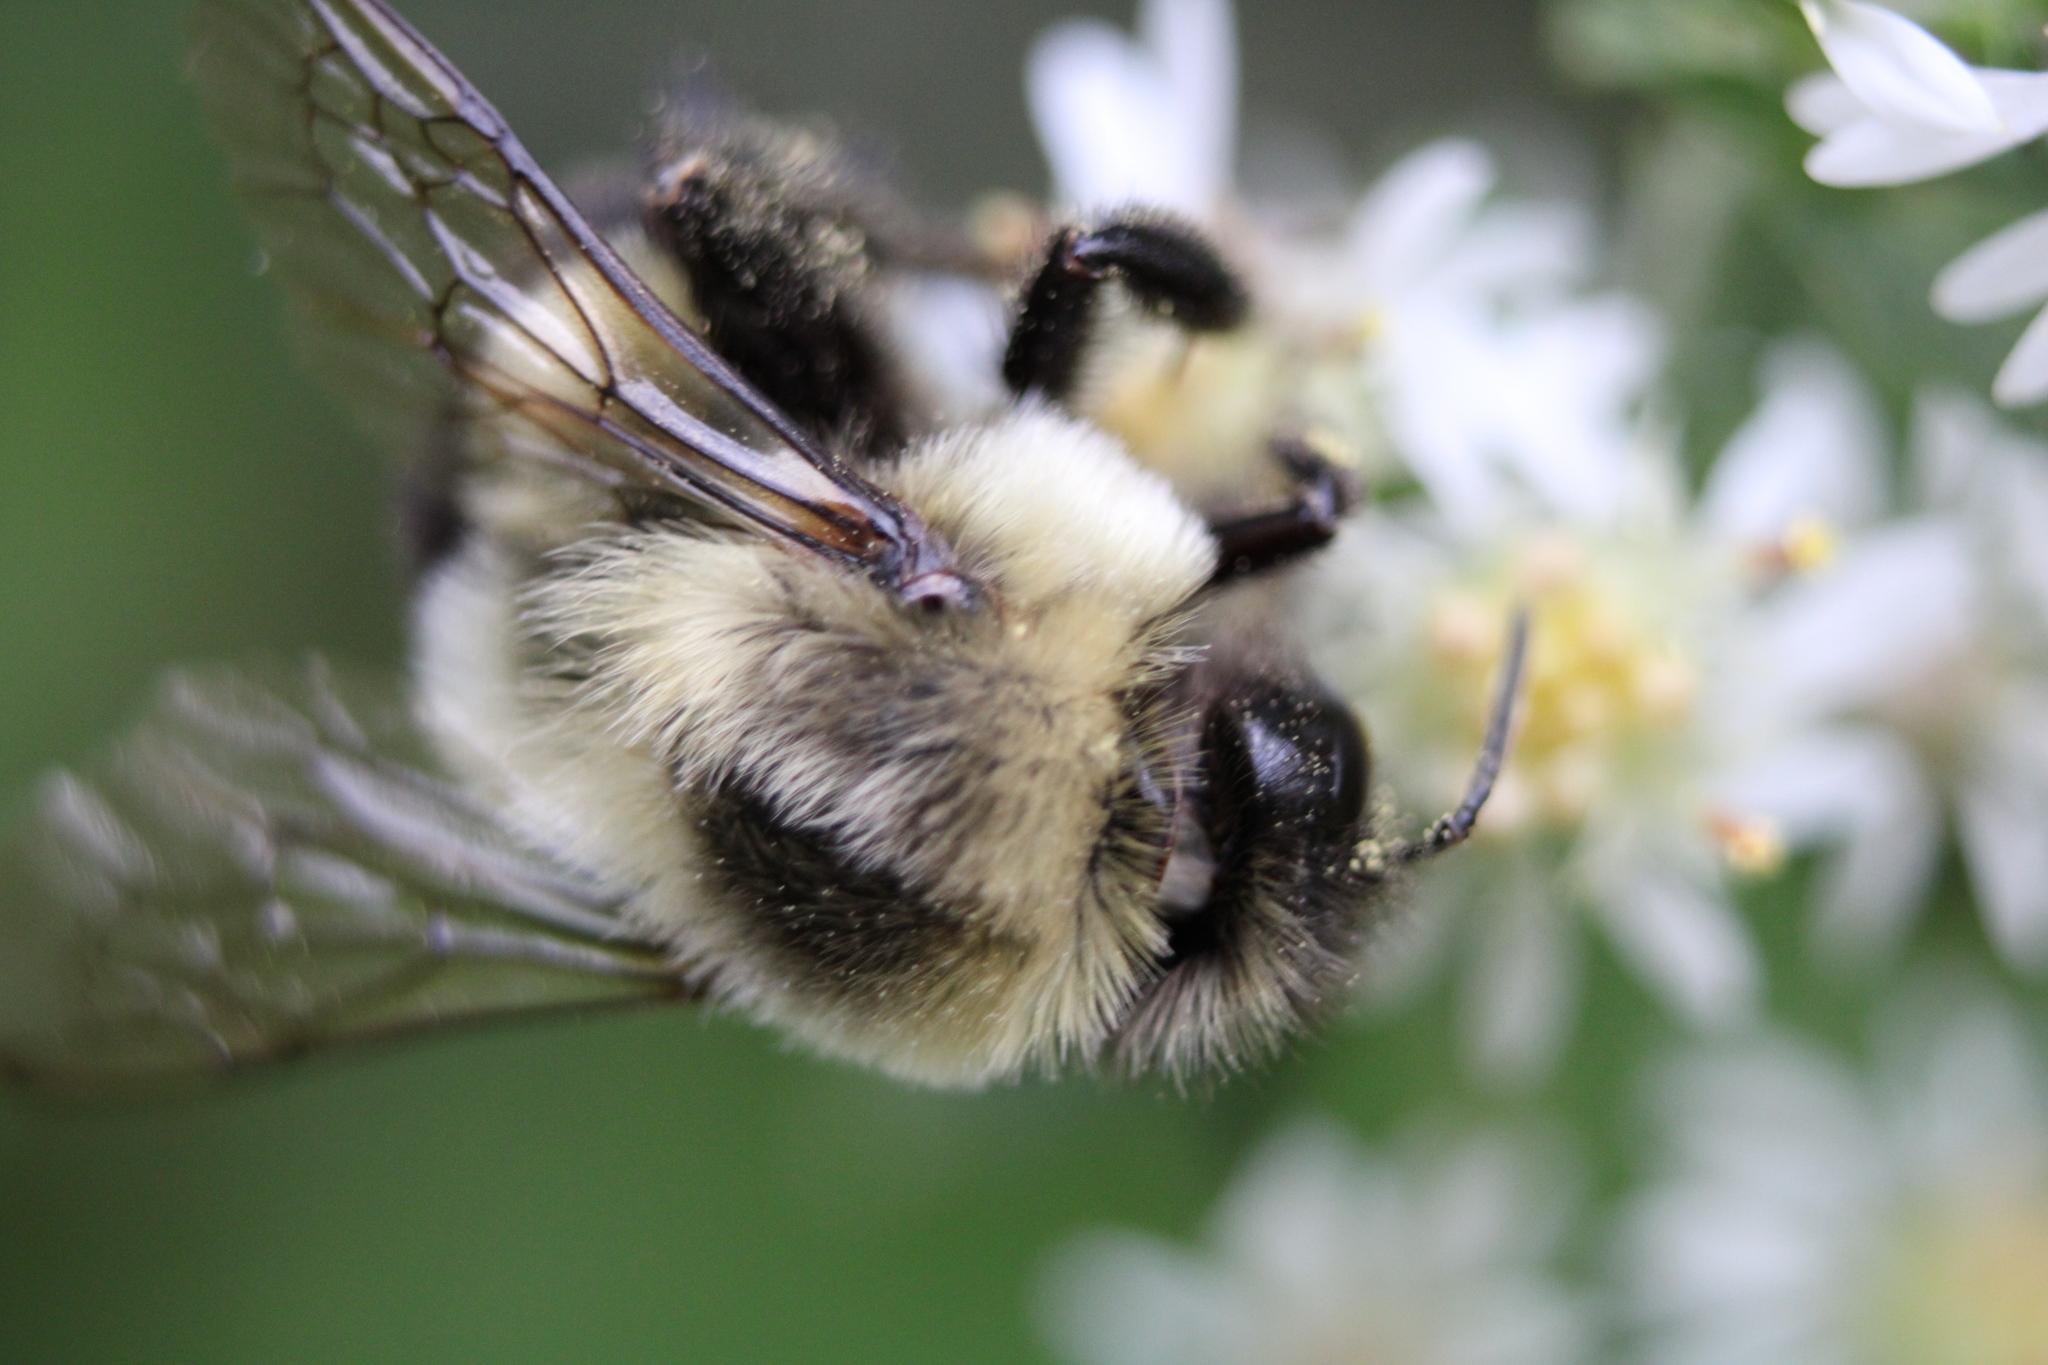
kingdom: Animalia
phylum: Arthropoda
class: Insecta
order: Hymenoptera
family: Apidae
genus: Bombus
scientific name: Bombus impatiens
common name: Common eastern bumble bee
